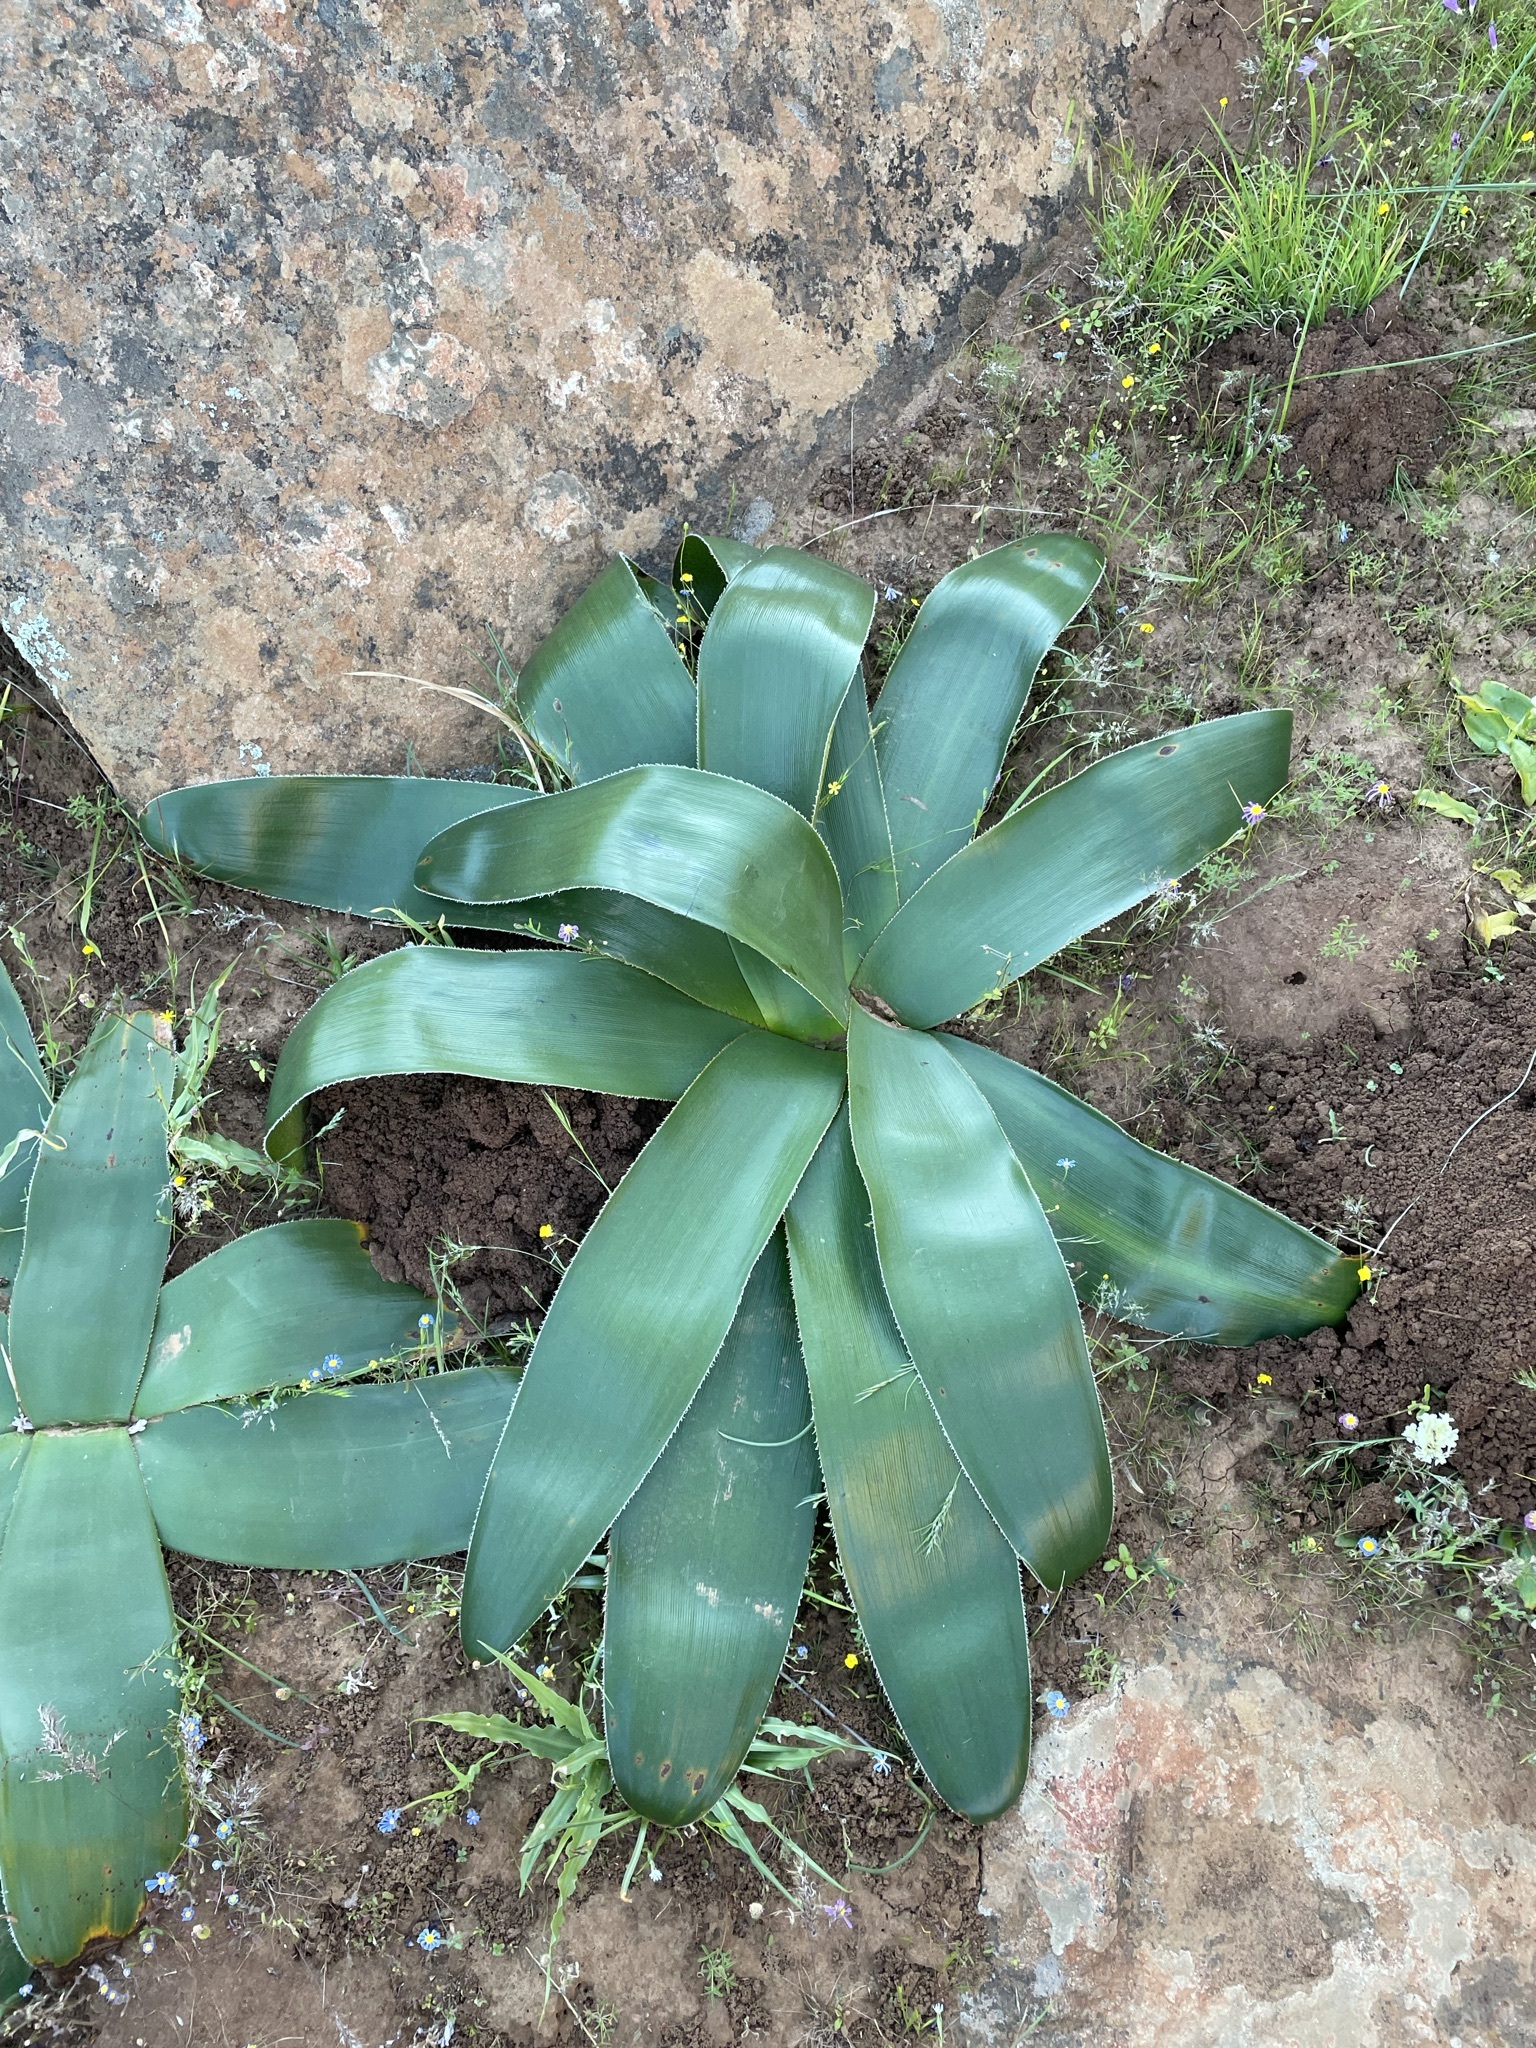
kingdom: Plantae
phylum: Tracheophyta
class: Liliopsida
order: Asparagales
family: Amaryllidaceae
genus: Crossyne
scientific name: Crossyne flava
